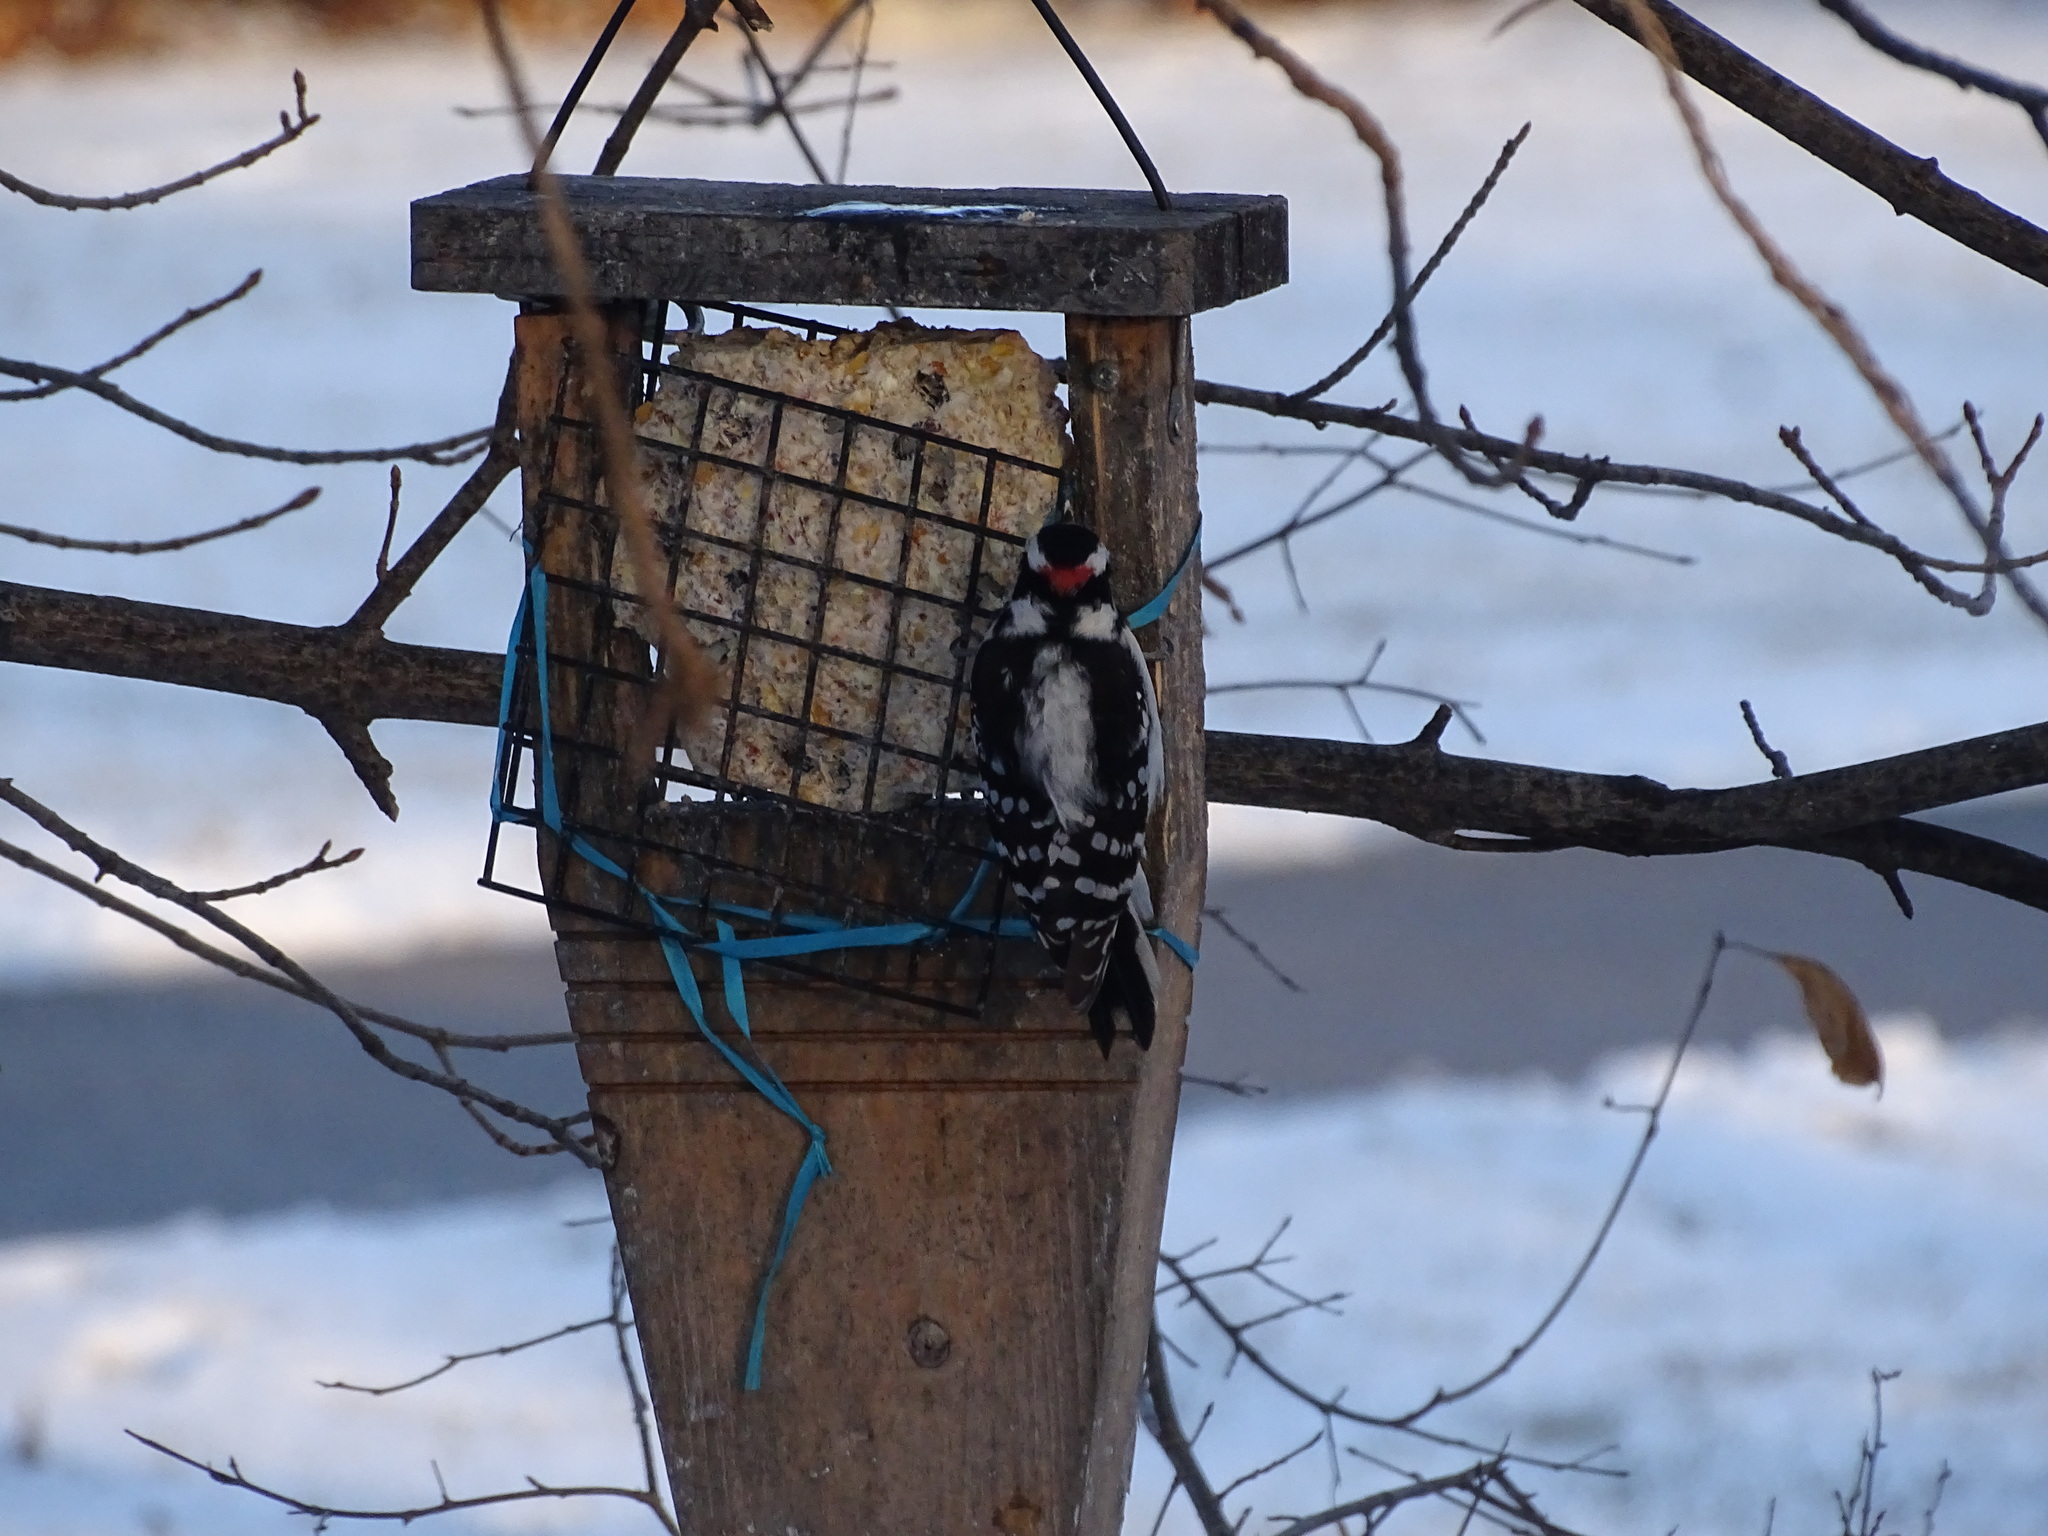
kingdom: Animalia
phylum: Chordata
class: Aves
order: Piciformes
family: Picidae
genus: Dryobates
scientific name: Dryobates pubescens
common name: Downy woodpecker
